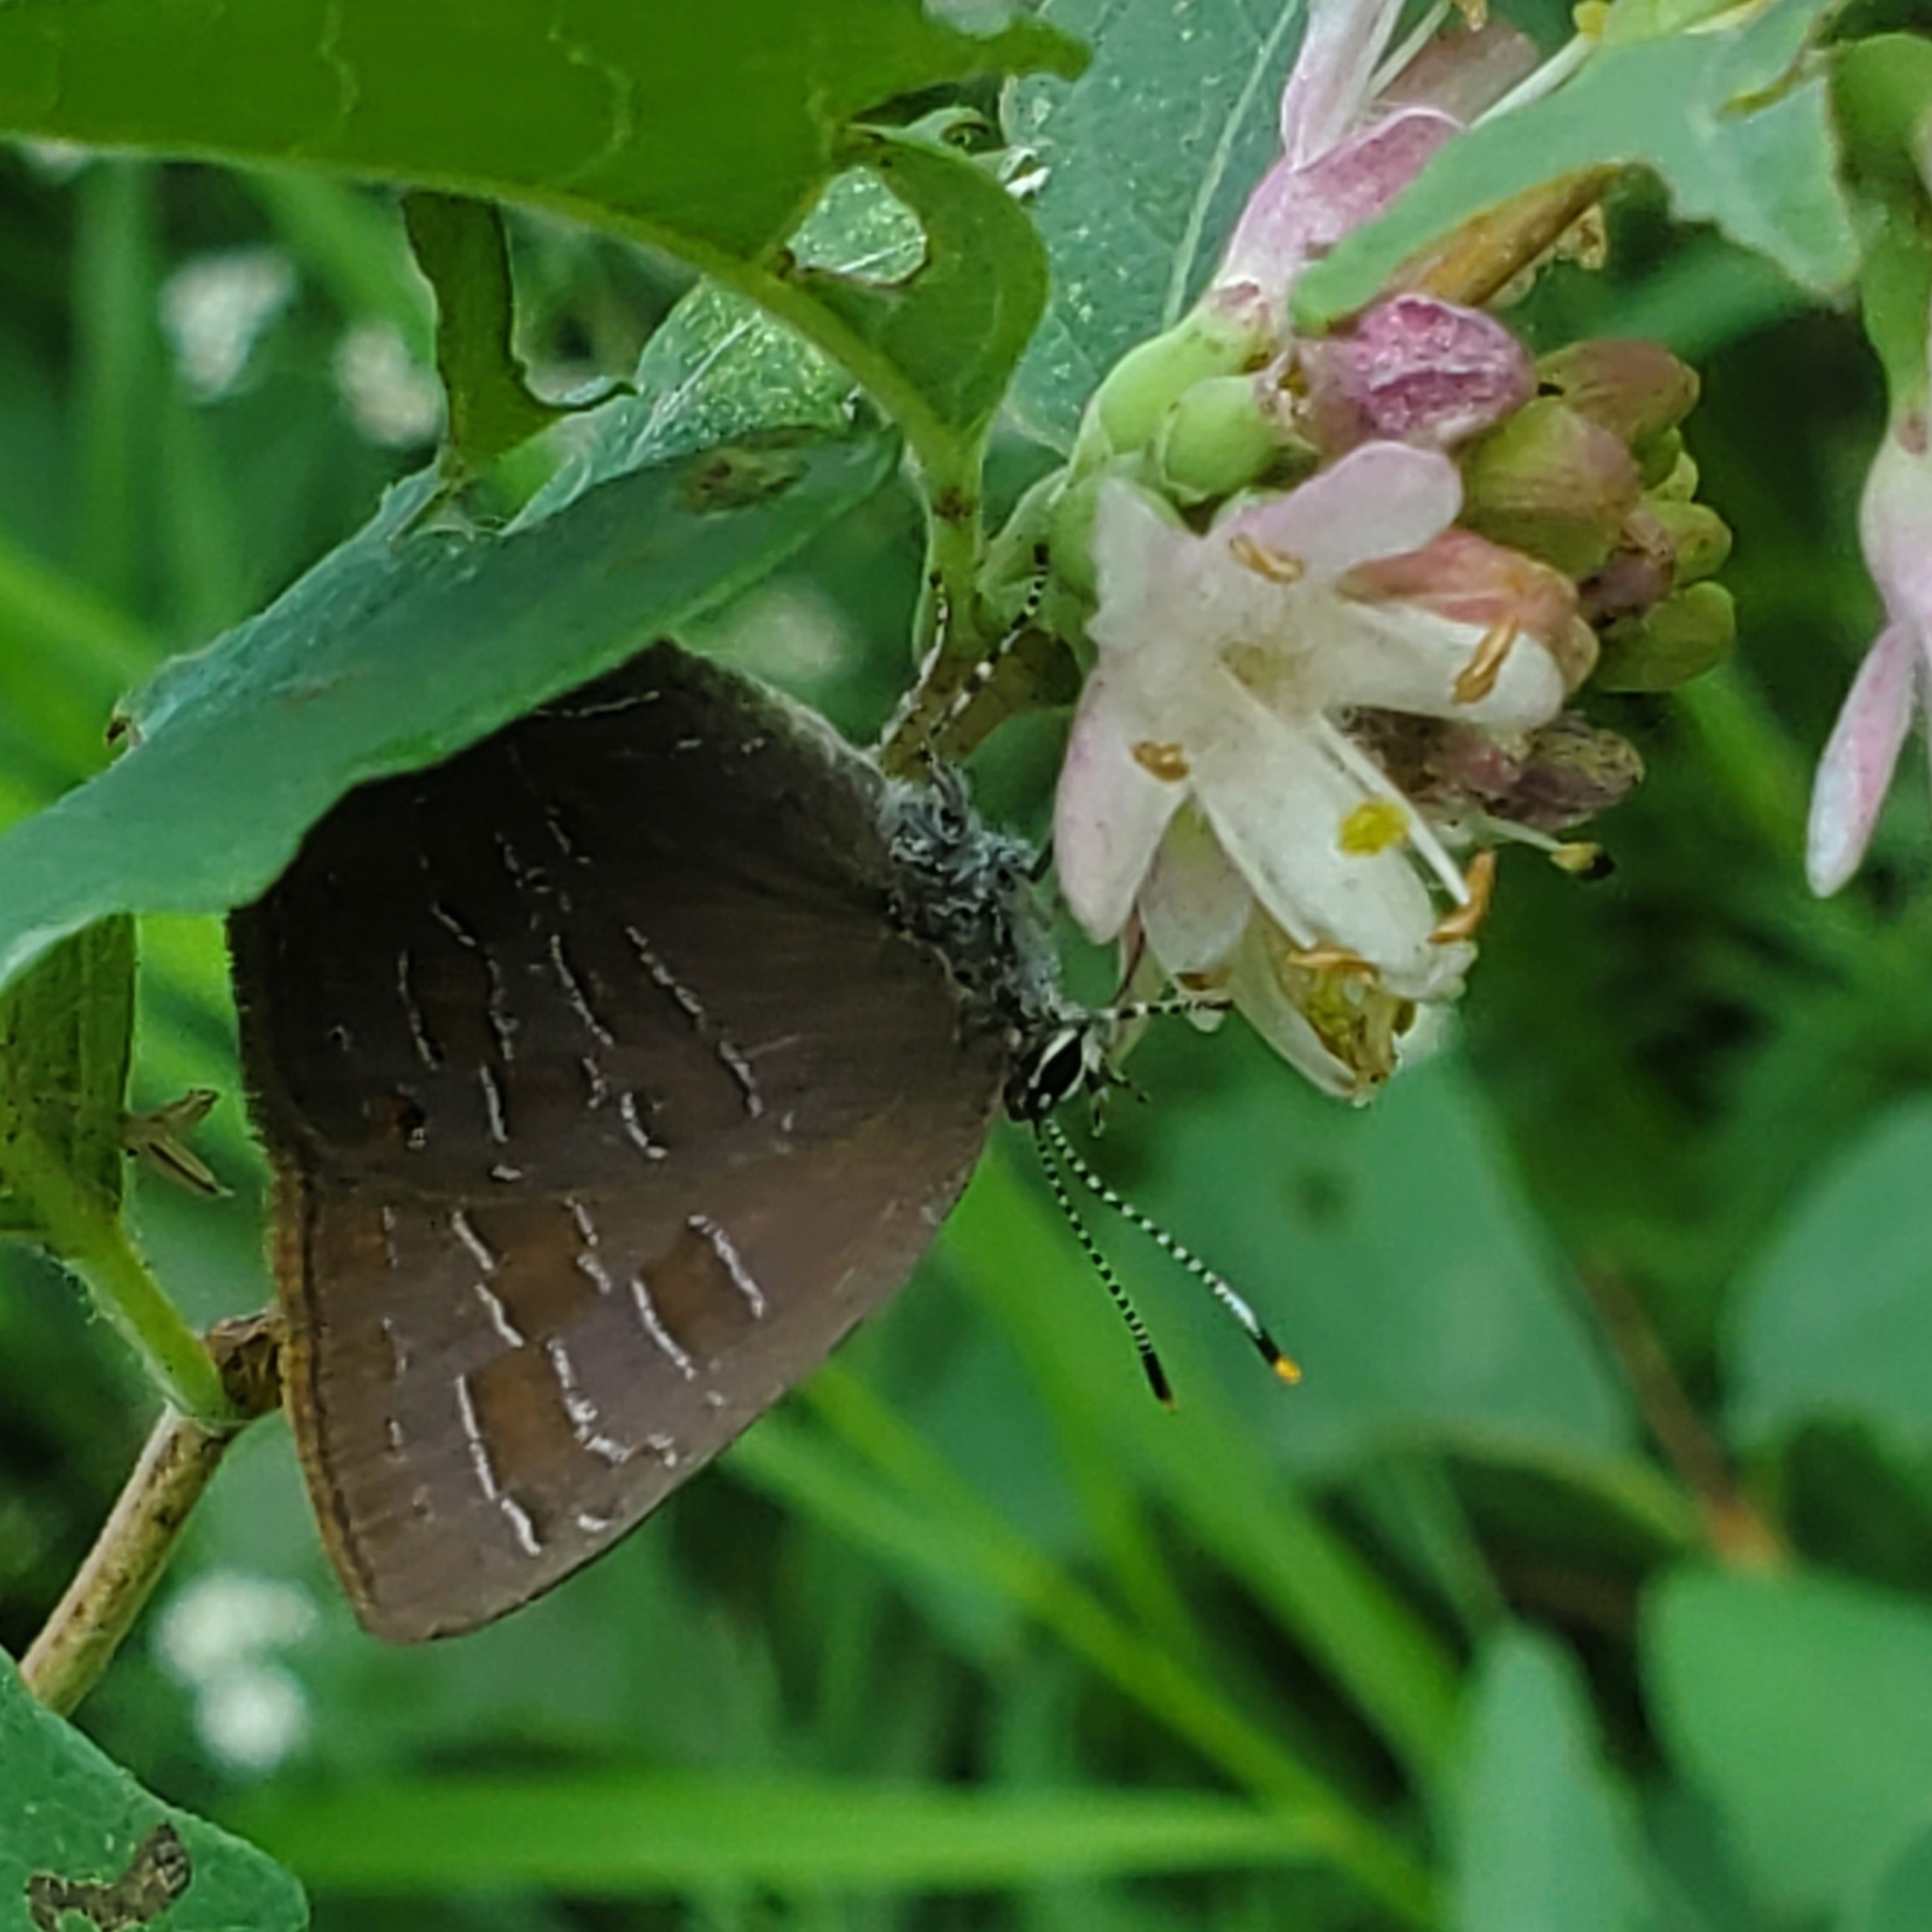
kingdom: Animalia
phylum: Arthropoda
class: Insecta
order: Lepidoptera
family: Lycaenidae
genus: Satyrium
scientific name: Satyrium liparops
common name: Striped hairstreak
